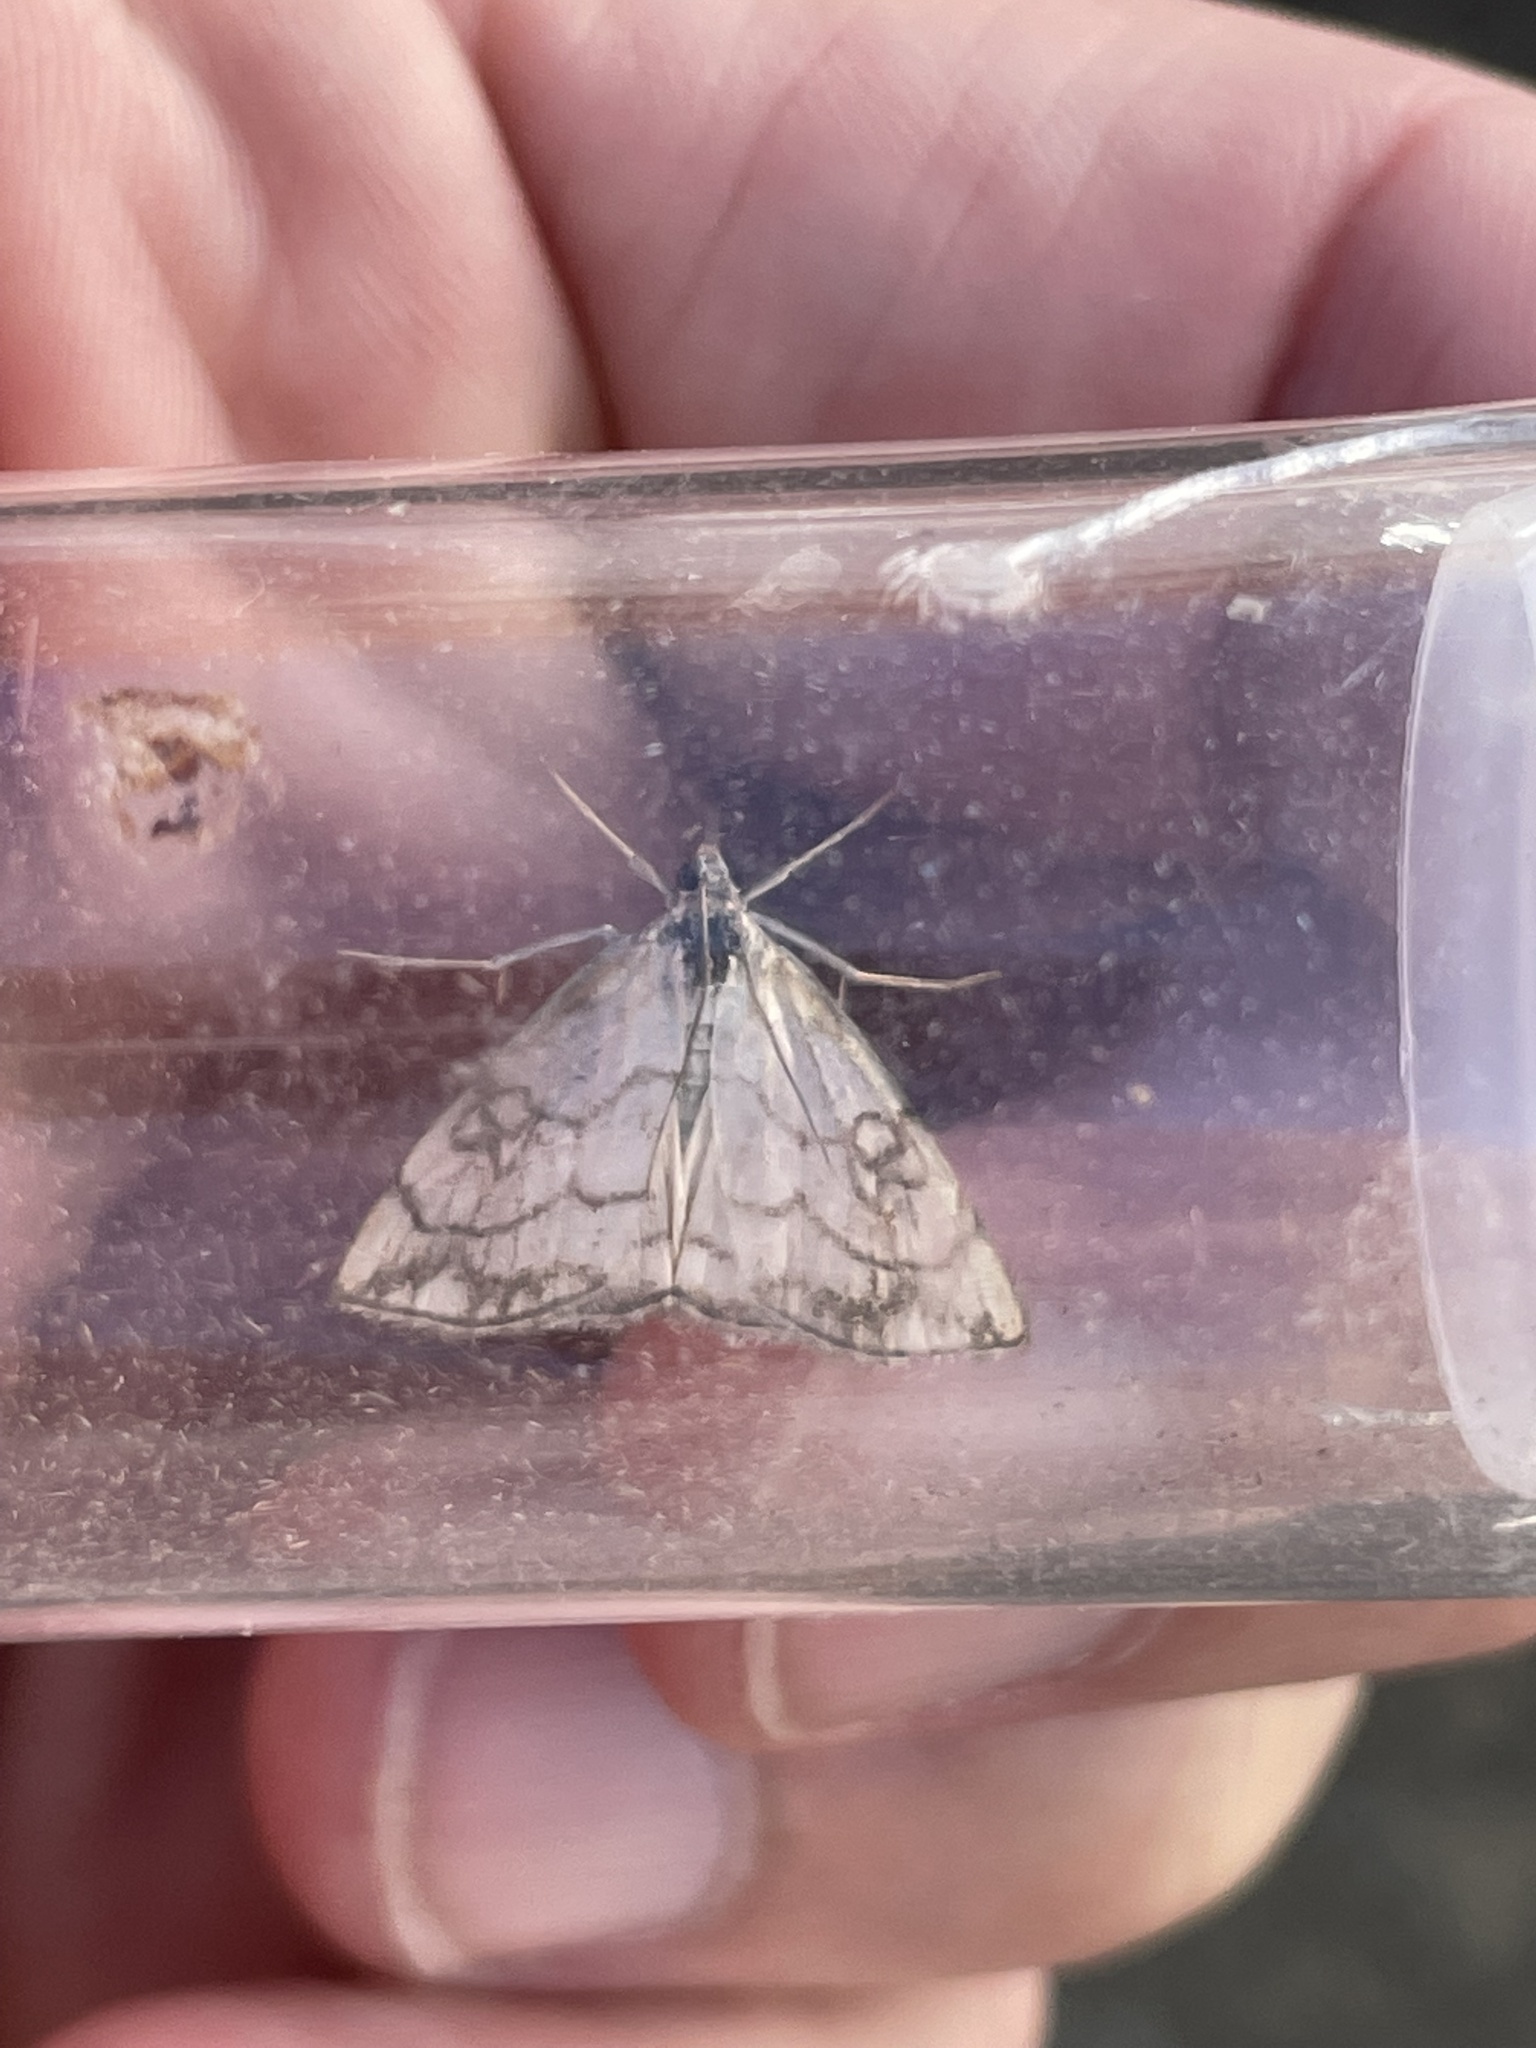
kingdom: Animalia
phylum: Arthropoda
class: Insecta
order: Lepidoptera
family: Crambidae
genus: Evergestis
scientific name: Evergestis pallidata
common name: Chequered pearl
